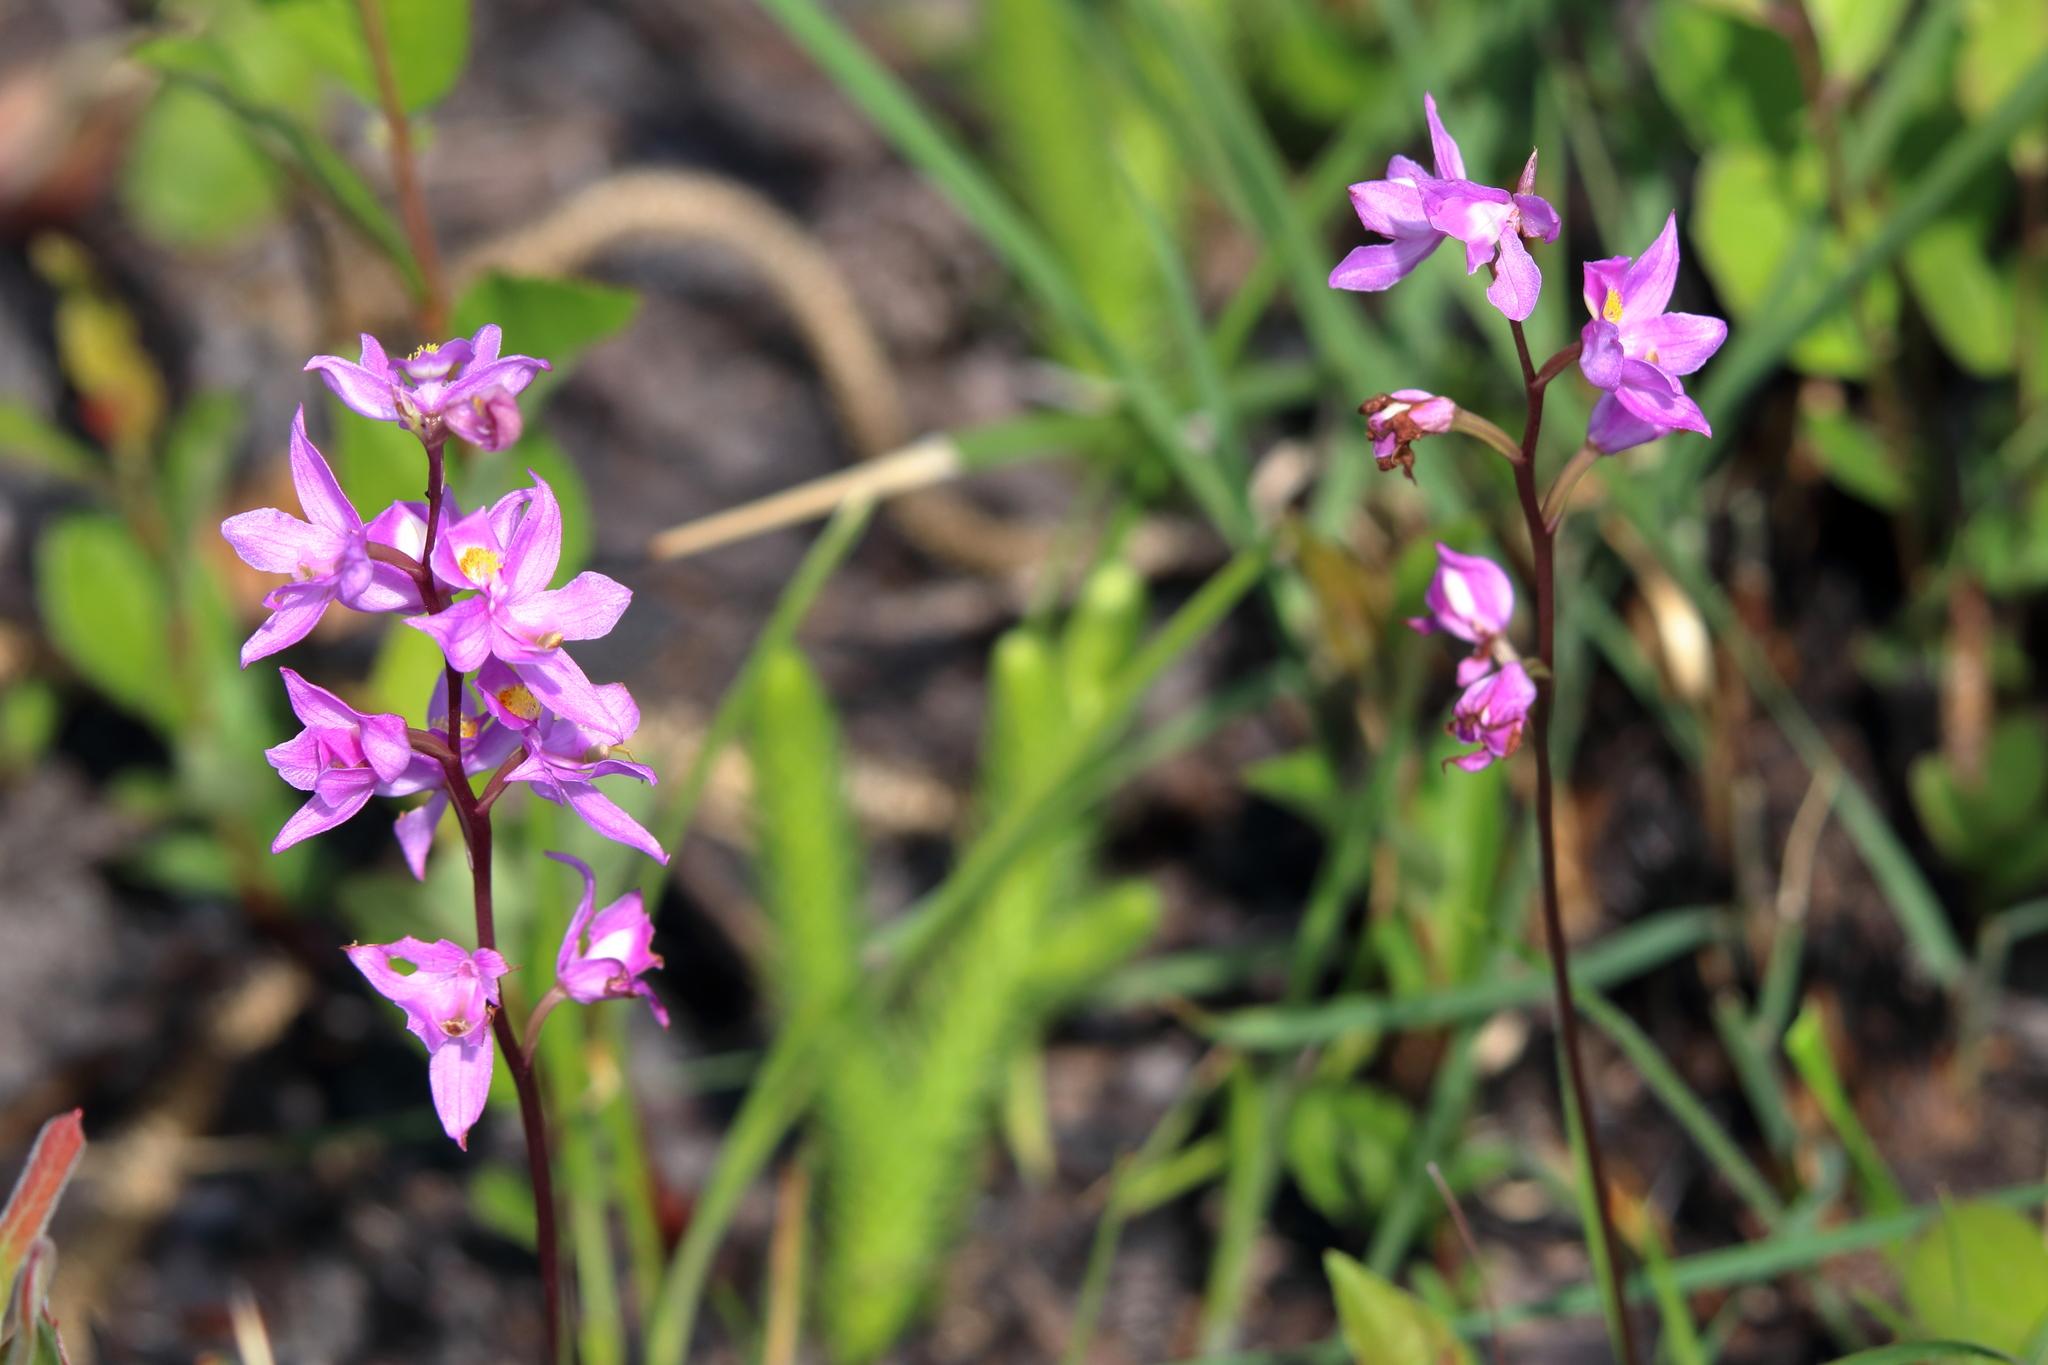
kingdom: Plantae
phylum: Tracheophyta
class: Liliopsida
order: Asparagales
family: Orchidaceae
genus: Calopogon
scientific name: Calopogon multiflorus
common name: Many-flowered grass-pink orchid
